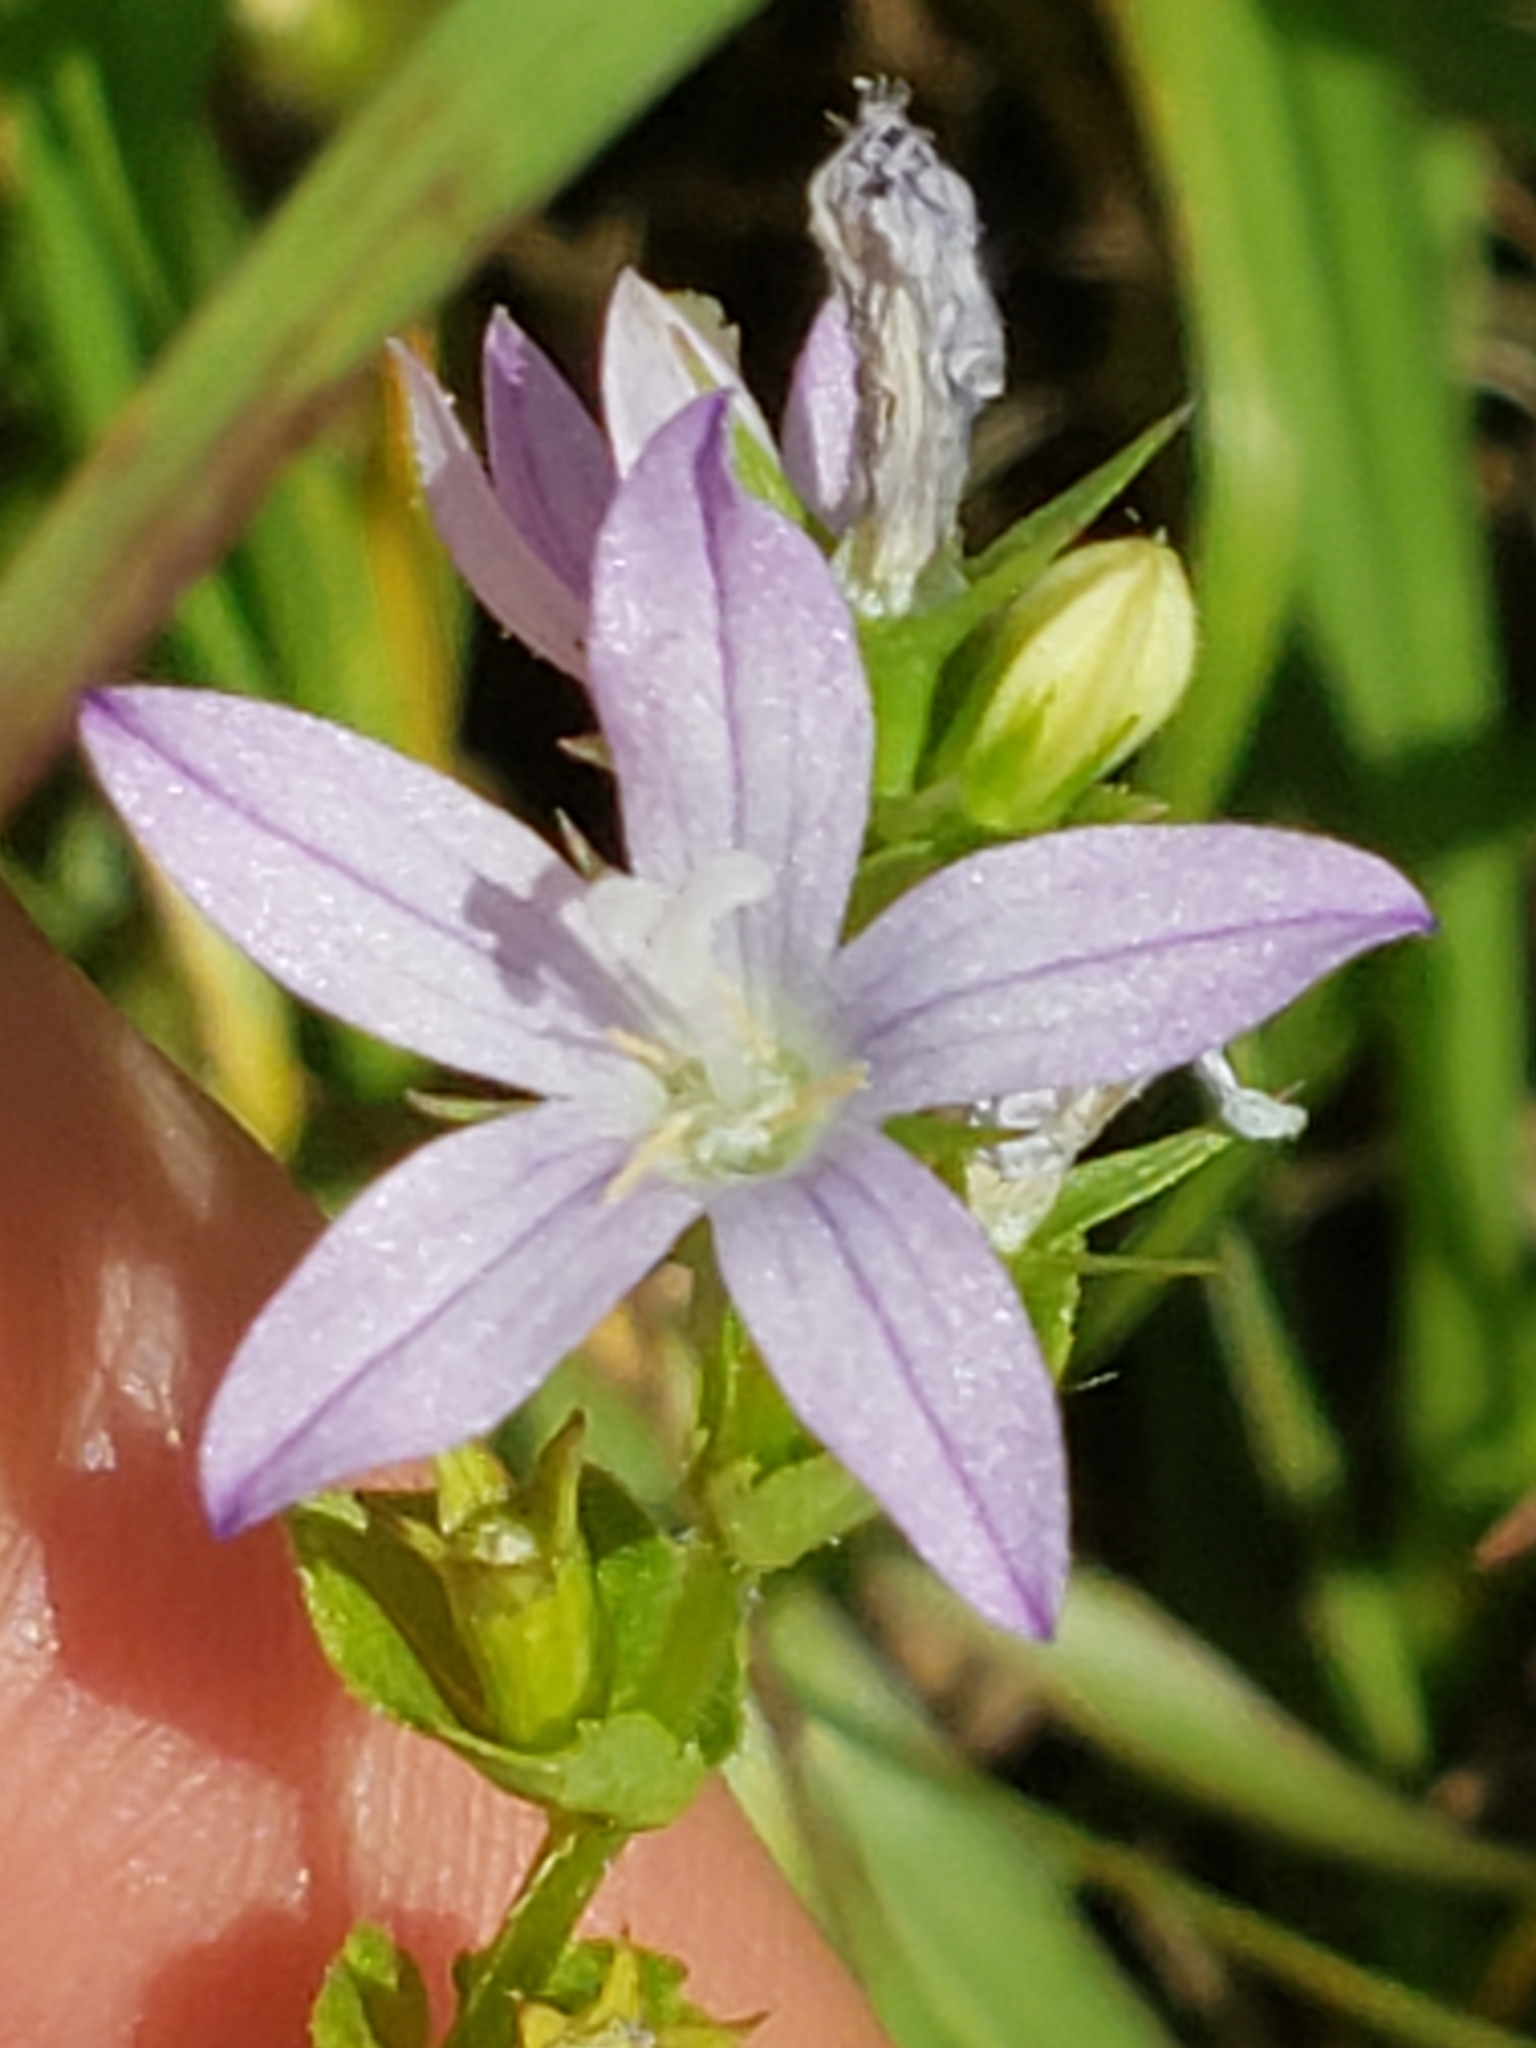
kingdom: Plantae
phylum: Tracheophyta
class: Magnoliopsida
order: Asterales
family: Campanulaceae
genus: Triodanis
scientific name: Triodanis biflora
